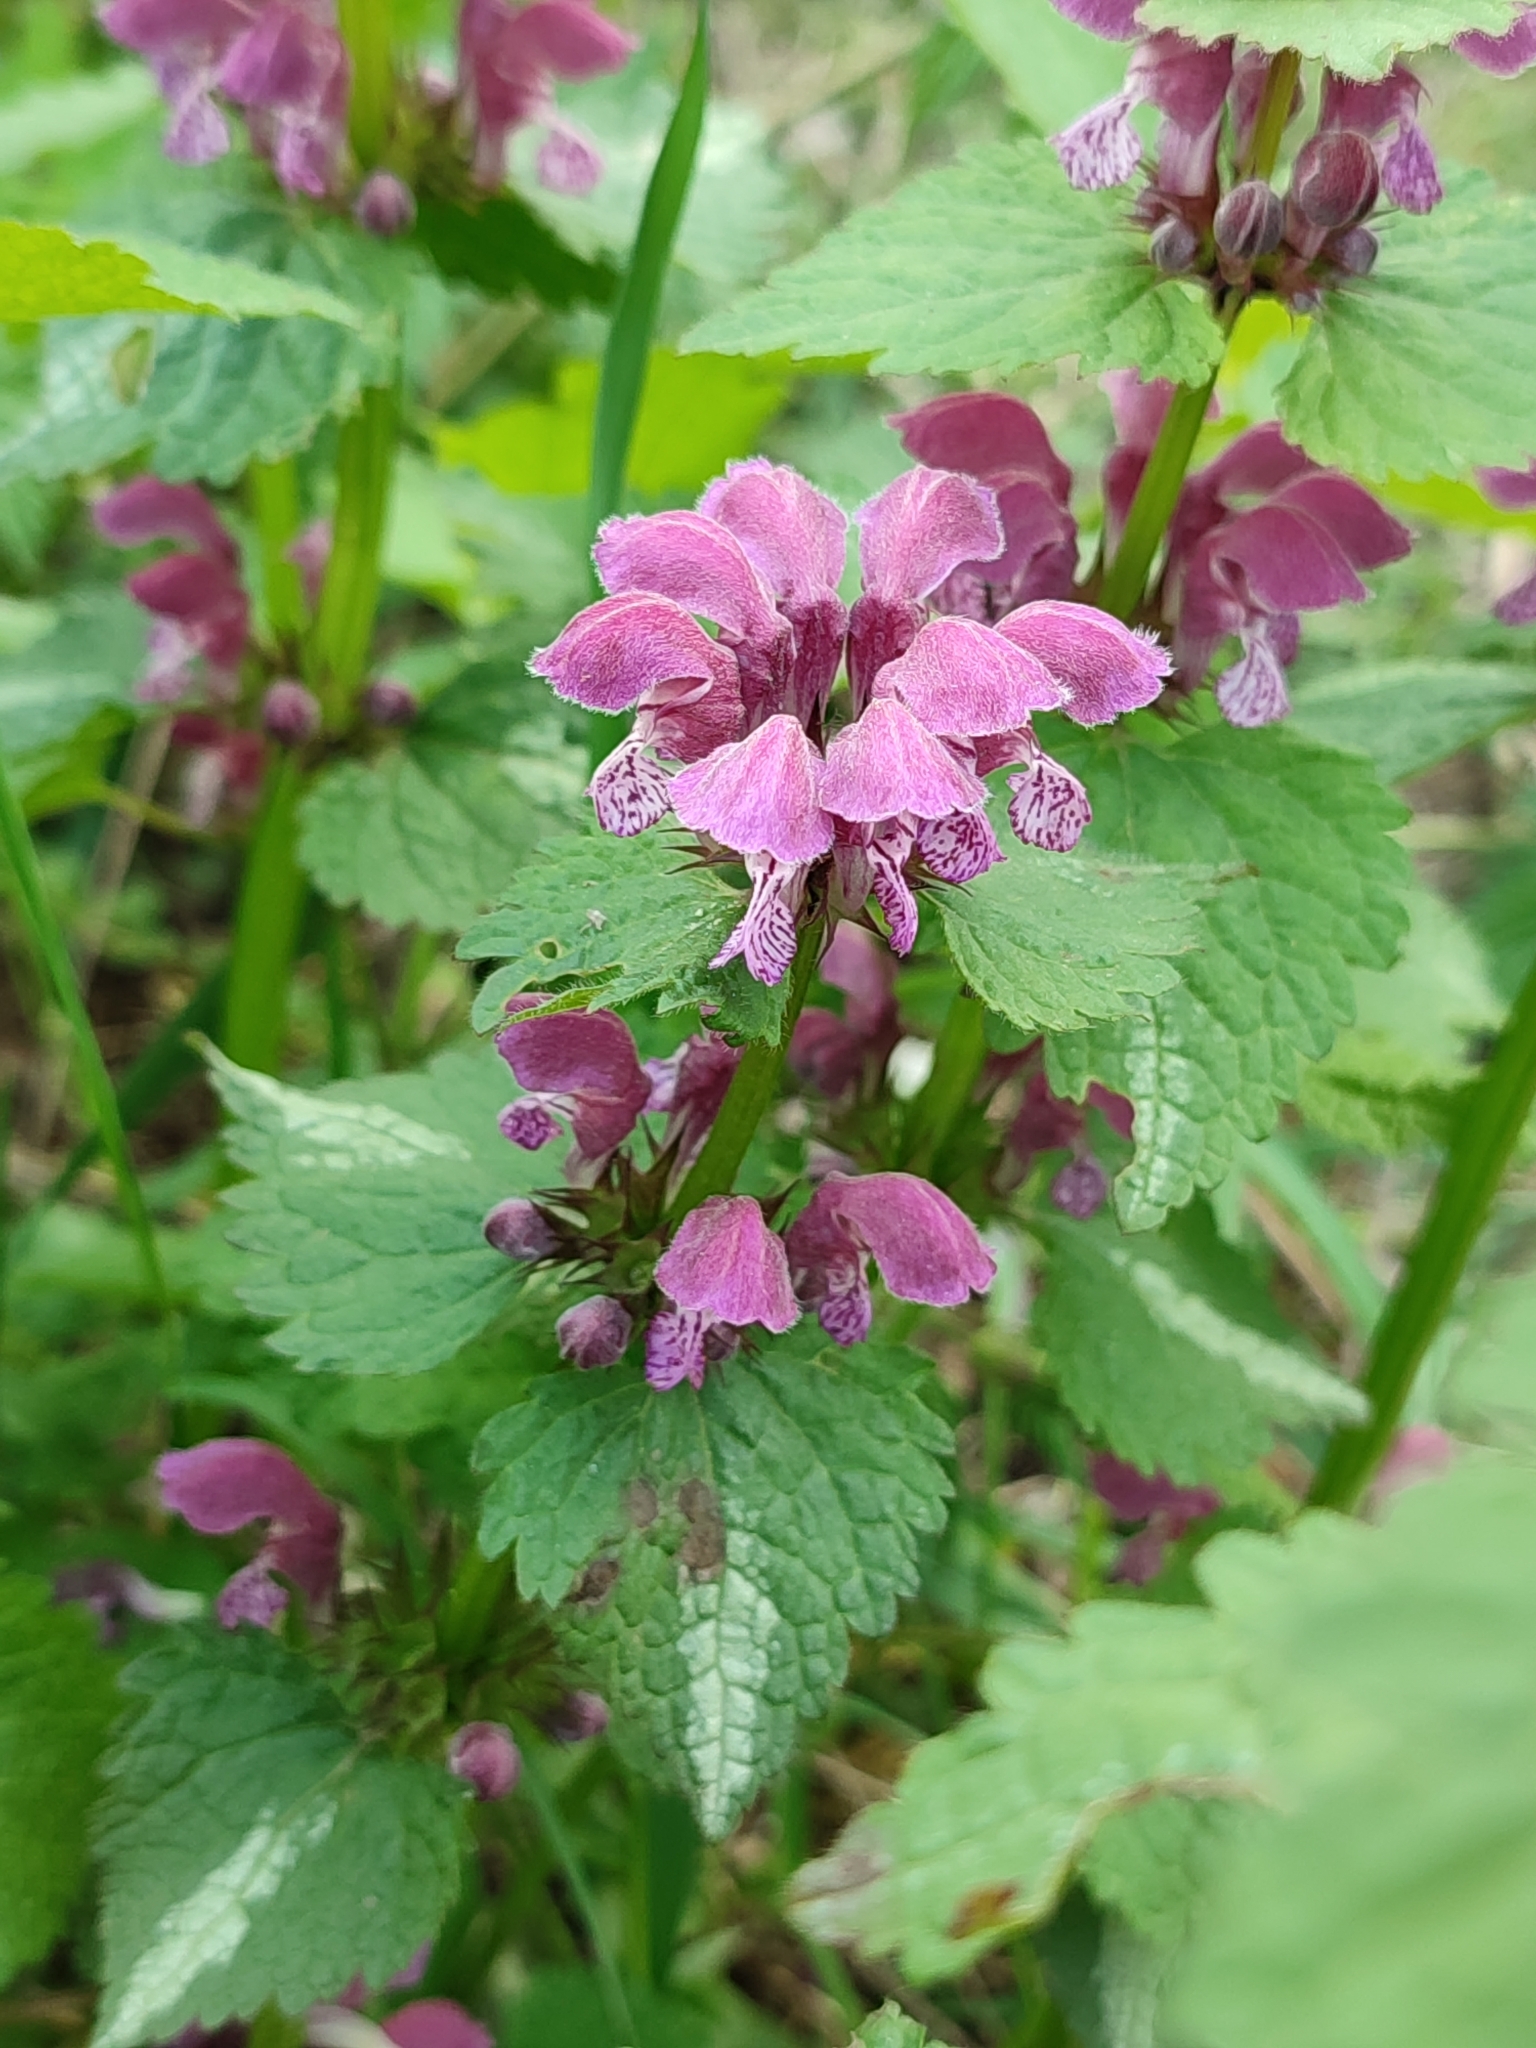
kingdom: Plantae
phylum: Tracheophyta
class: Magnoliopsida
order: Lamiales
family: Lamiaceae
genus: Lamium
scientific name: Lamium maculatum
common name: Spotted dead-nettle
